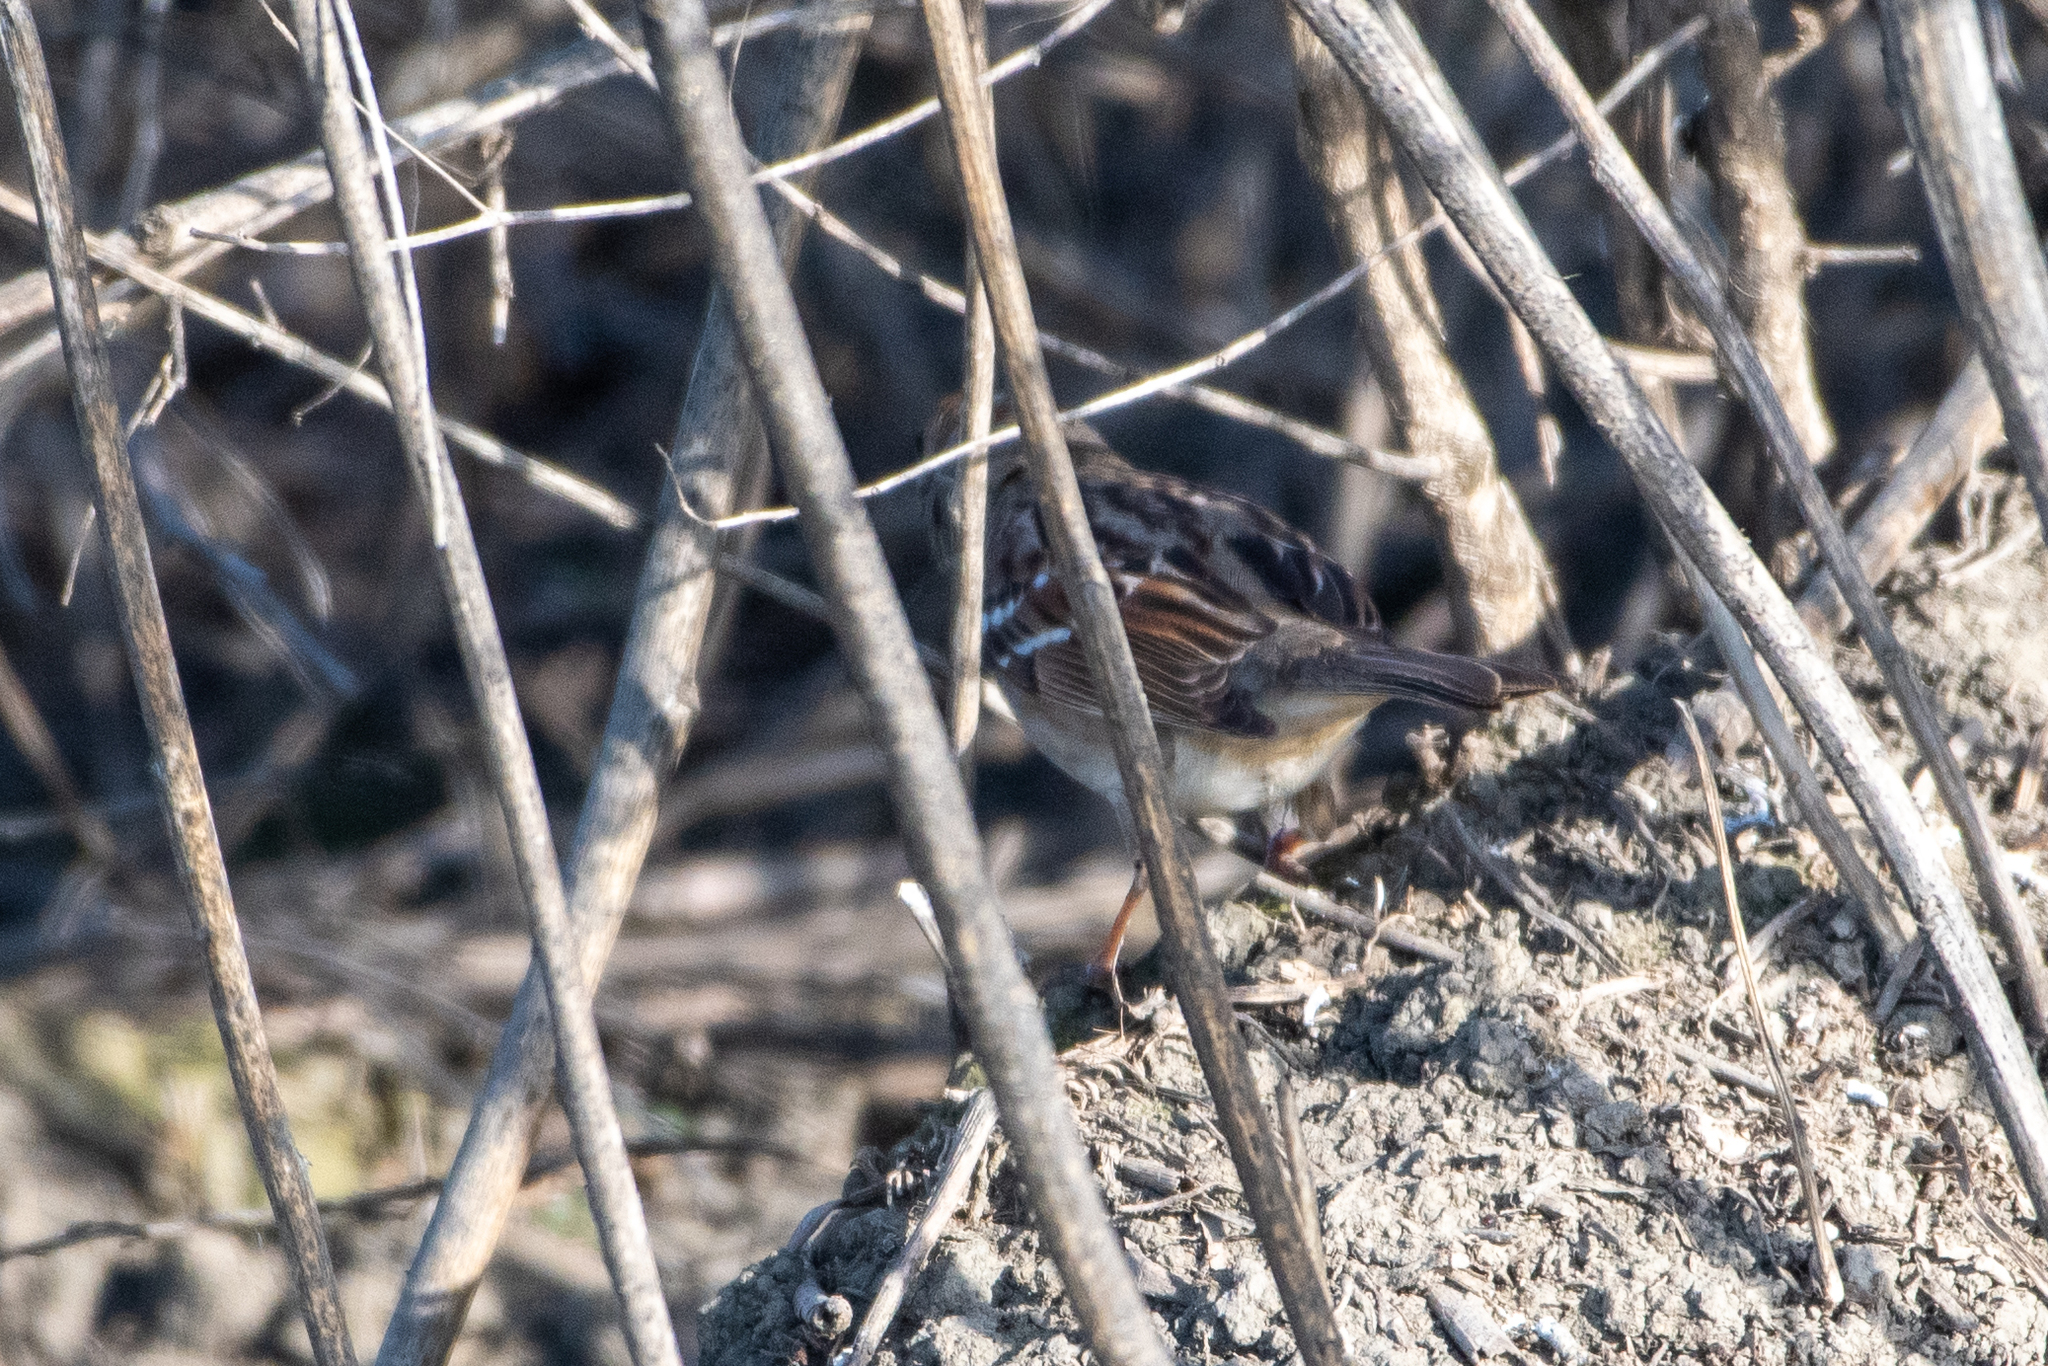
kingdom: Animalia
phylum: Chordata
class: Aves
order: Passeriformes
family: Passerellidae
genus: Zonotrichia
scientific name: Zonotrichia leucophrys
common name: White-crowned sparrow
